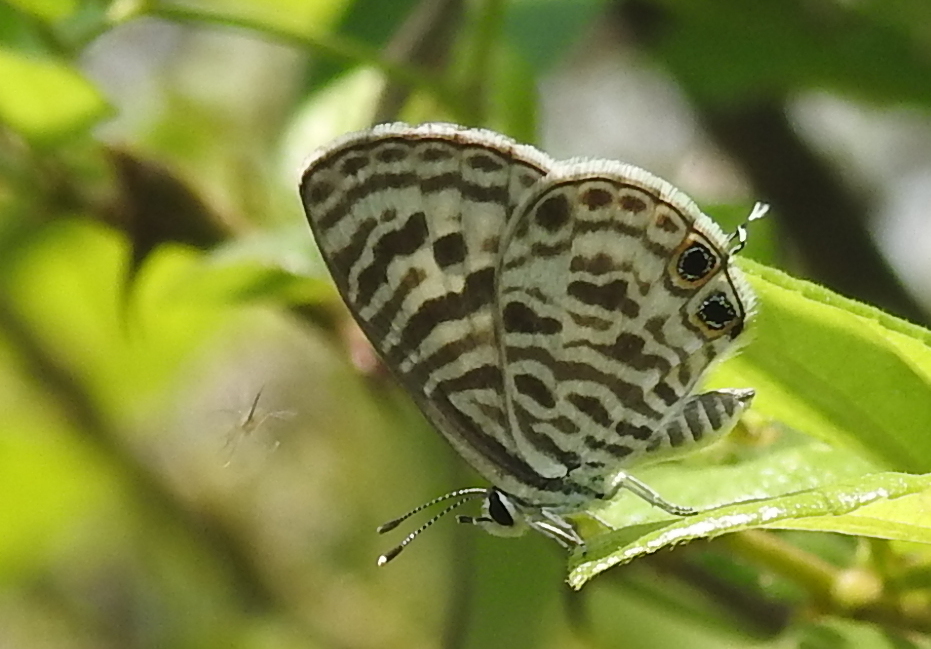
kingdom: Animalia
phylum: Arthropoda
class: Insecta
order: Lepidoptera
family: Lycaenidae
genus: Leptotes
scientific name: Leptotes plinius
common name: Zebra blue
